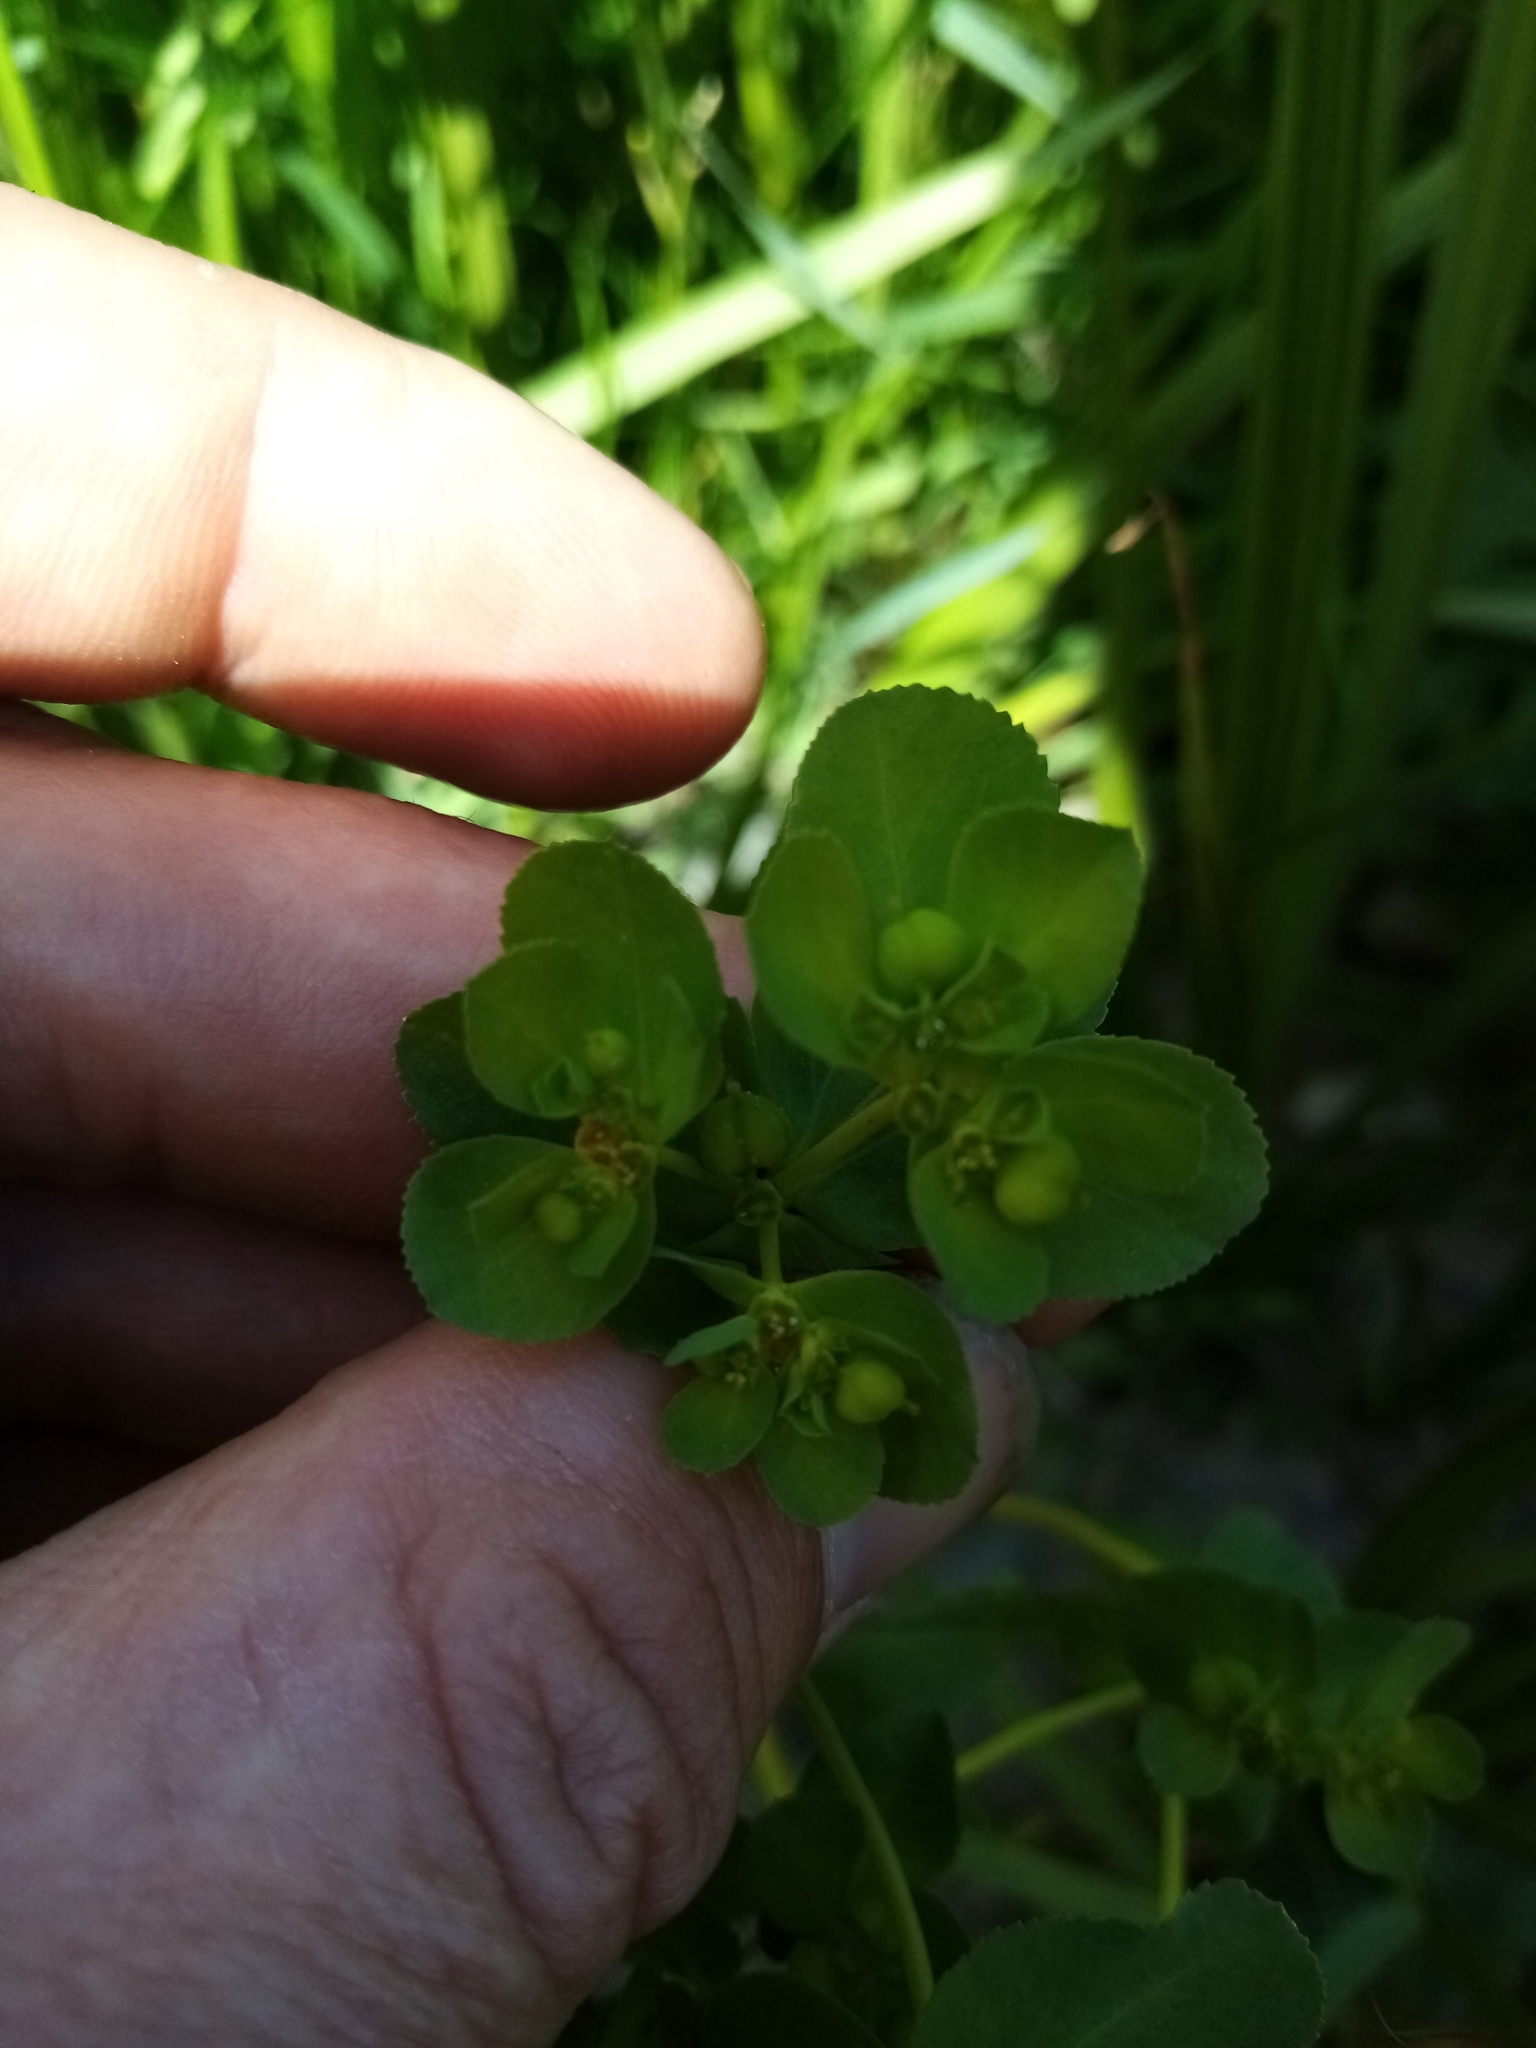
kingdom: Plantae
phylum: Tracheophyta
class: Magnoliopsida
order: Malpighiales
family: Euphorbiaceae
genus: Euphorbia
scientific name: Euphorbia helioscopia
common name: Sun spurge
